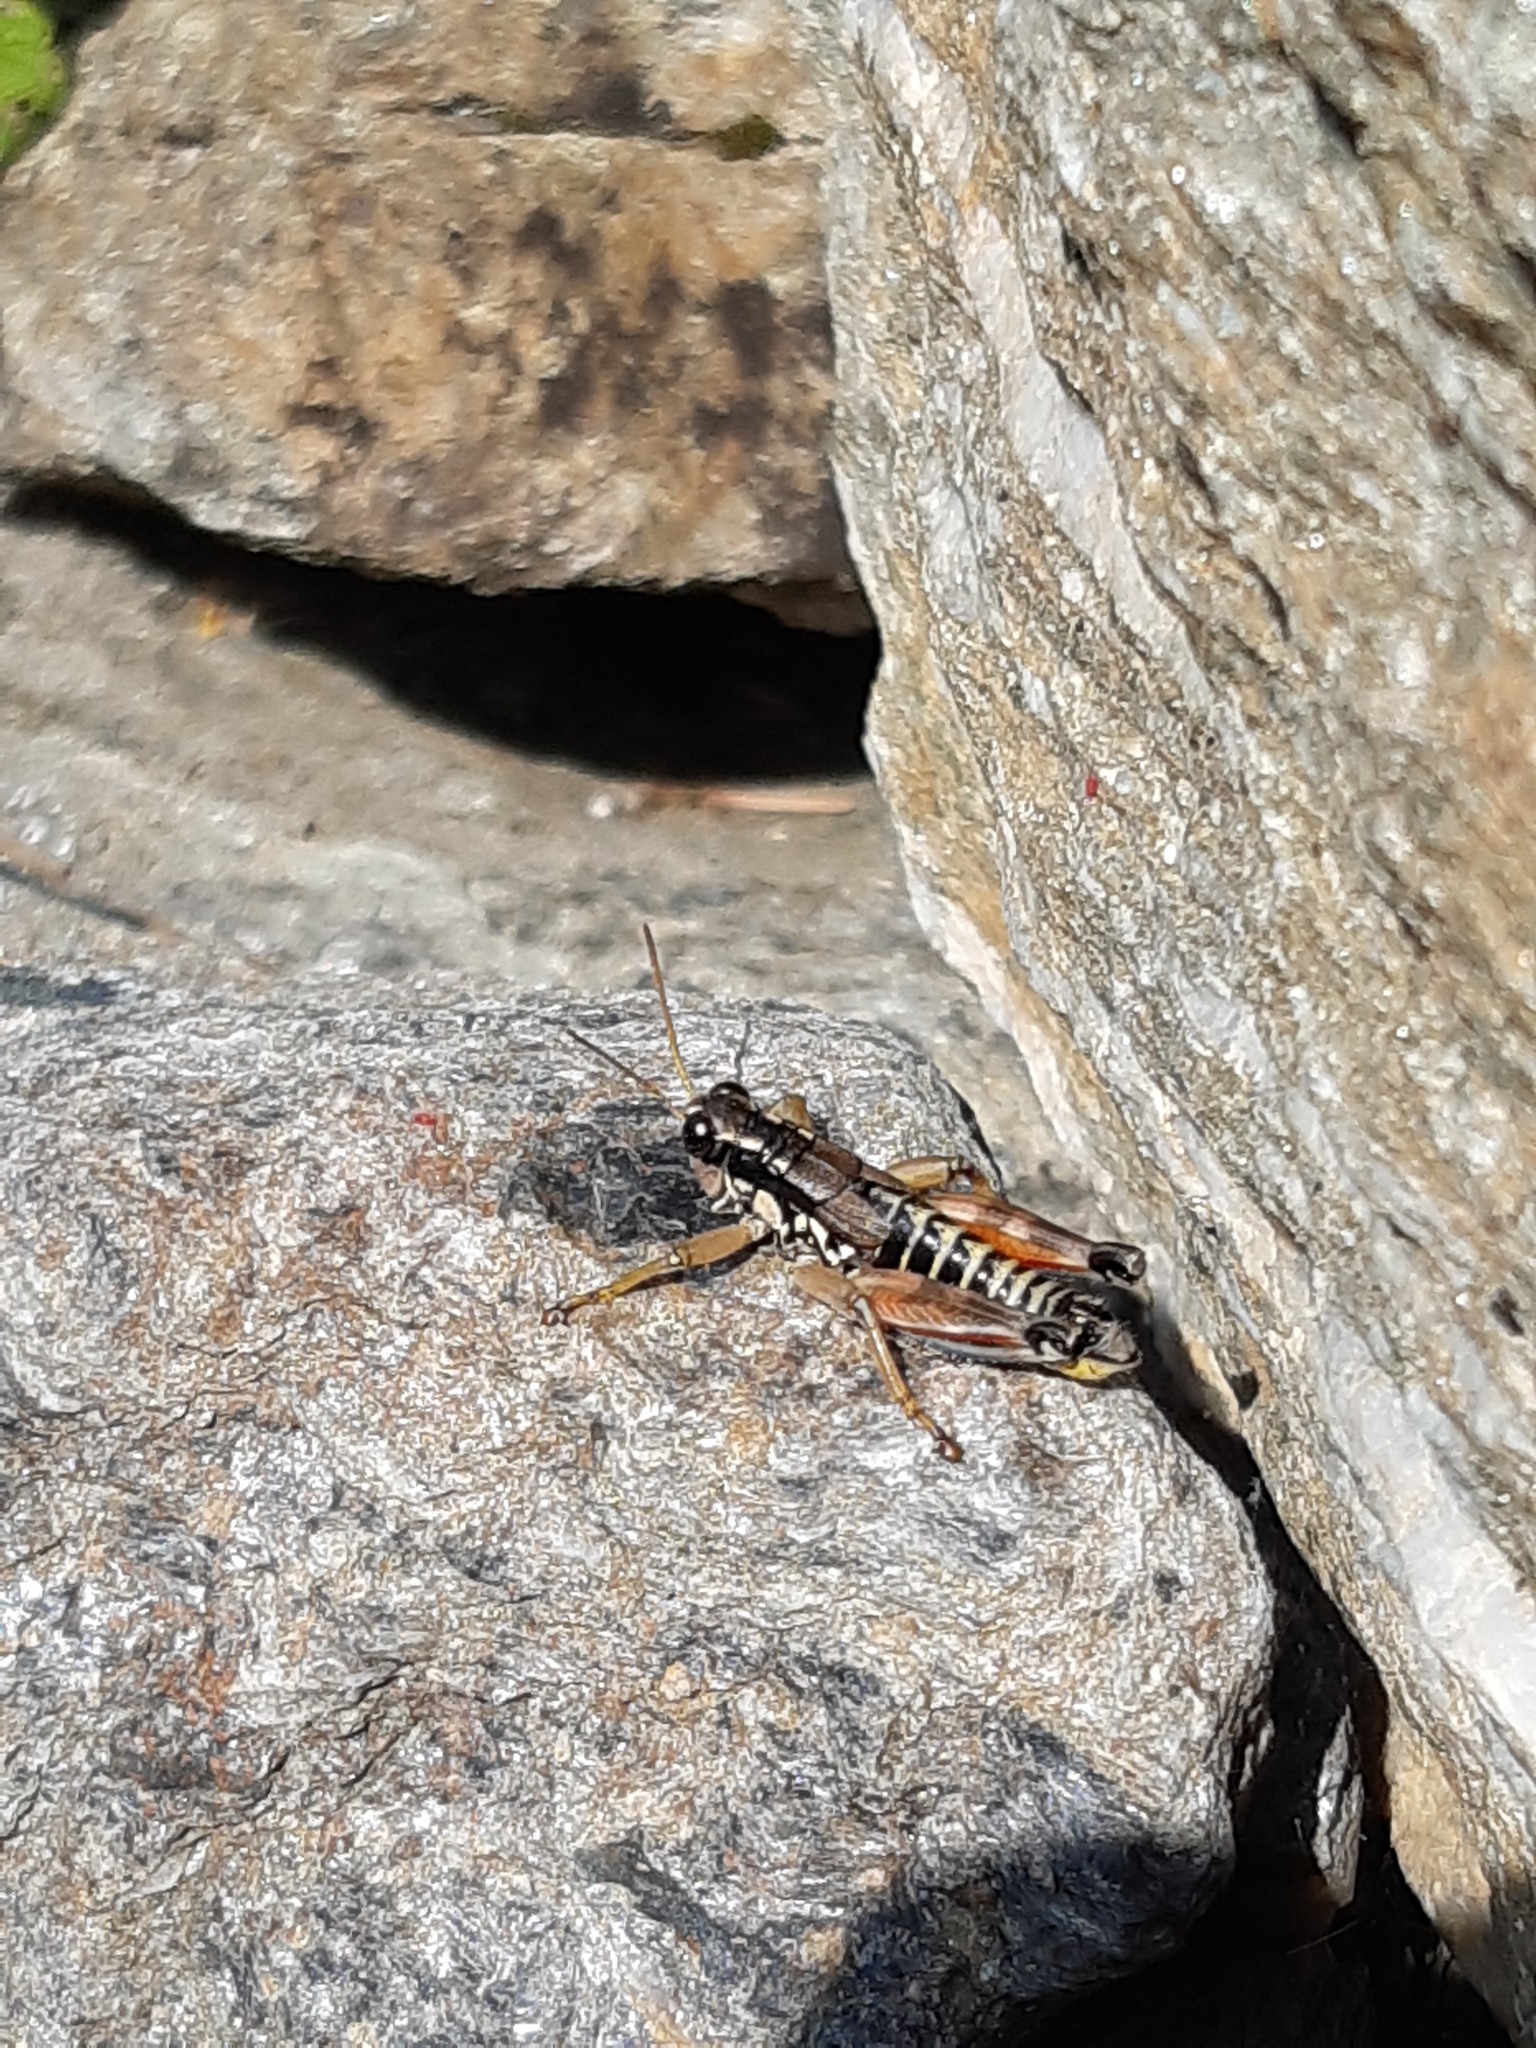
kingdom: Animalia
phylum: Arthropoda
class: Insecta
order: Orthoptera
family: Acrididae
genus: Podisma
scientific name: Podisma pedestris
